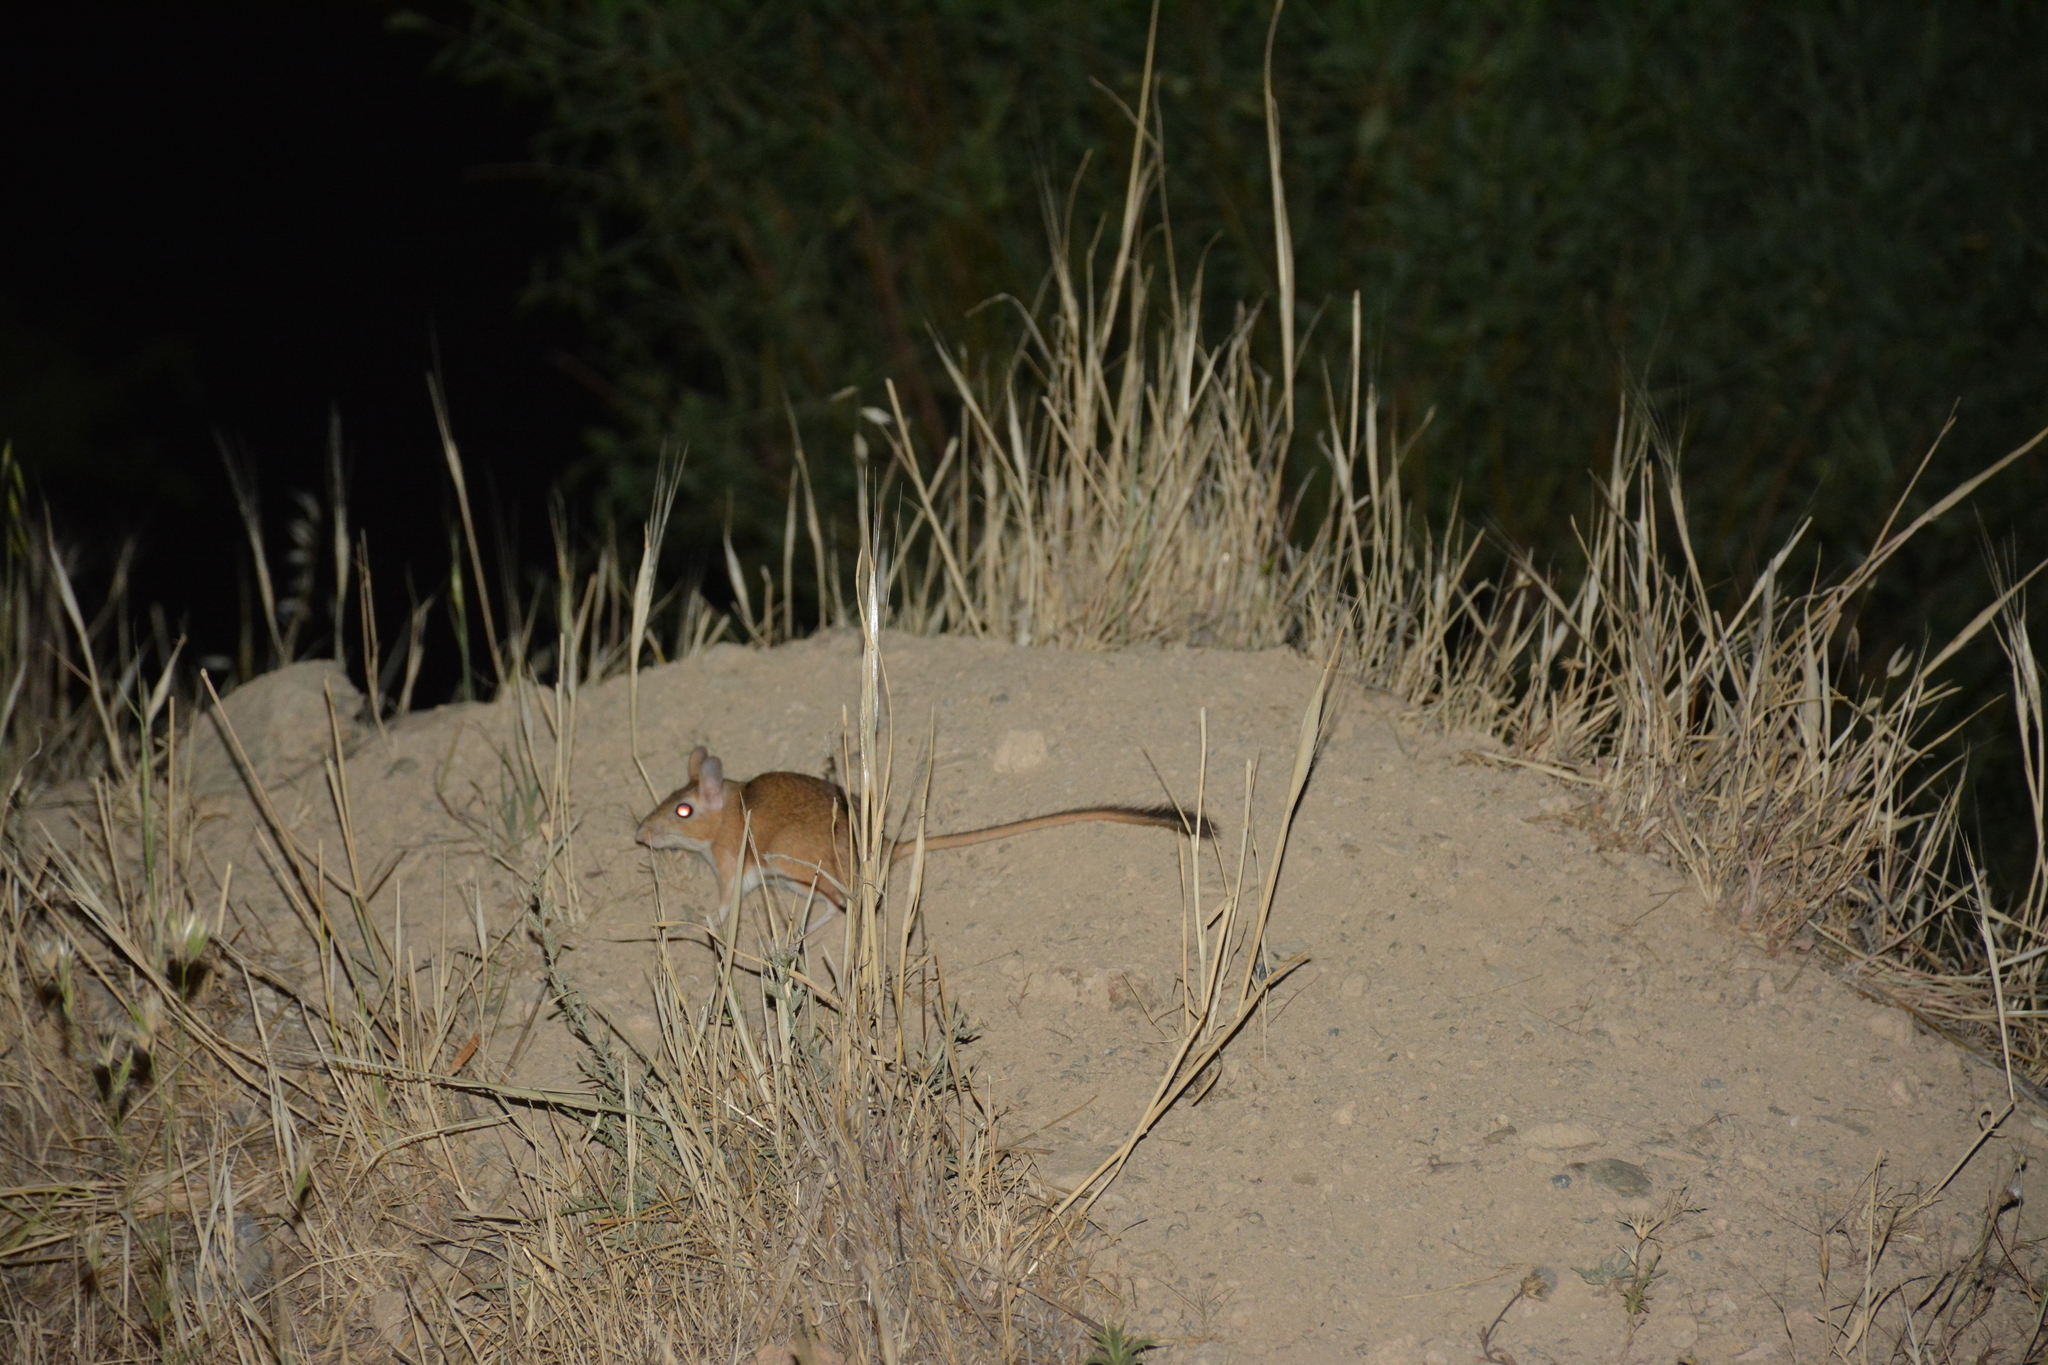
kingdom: Animalia
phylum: Chordata
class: Mammalia
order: Rodentia
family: Muridae
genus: Meriones
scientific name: Meriones persicus
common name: Persian jird
